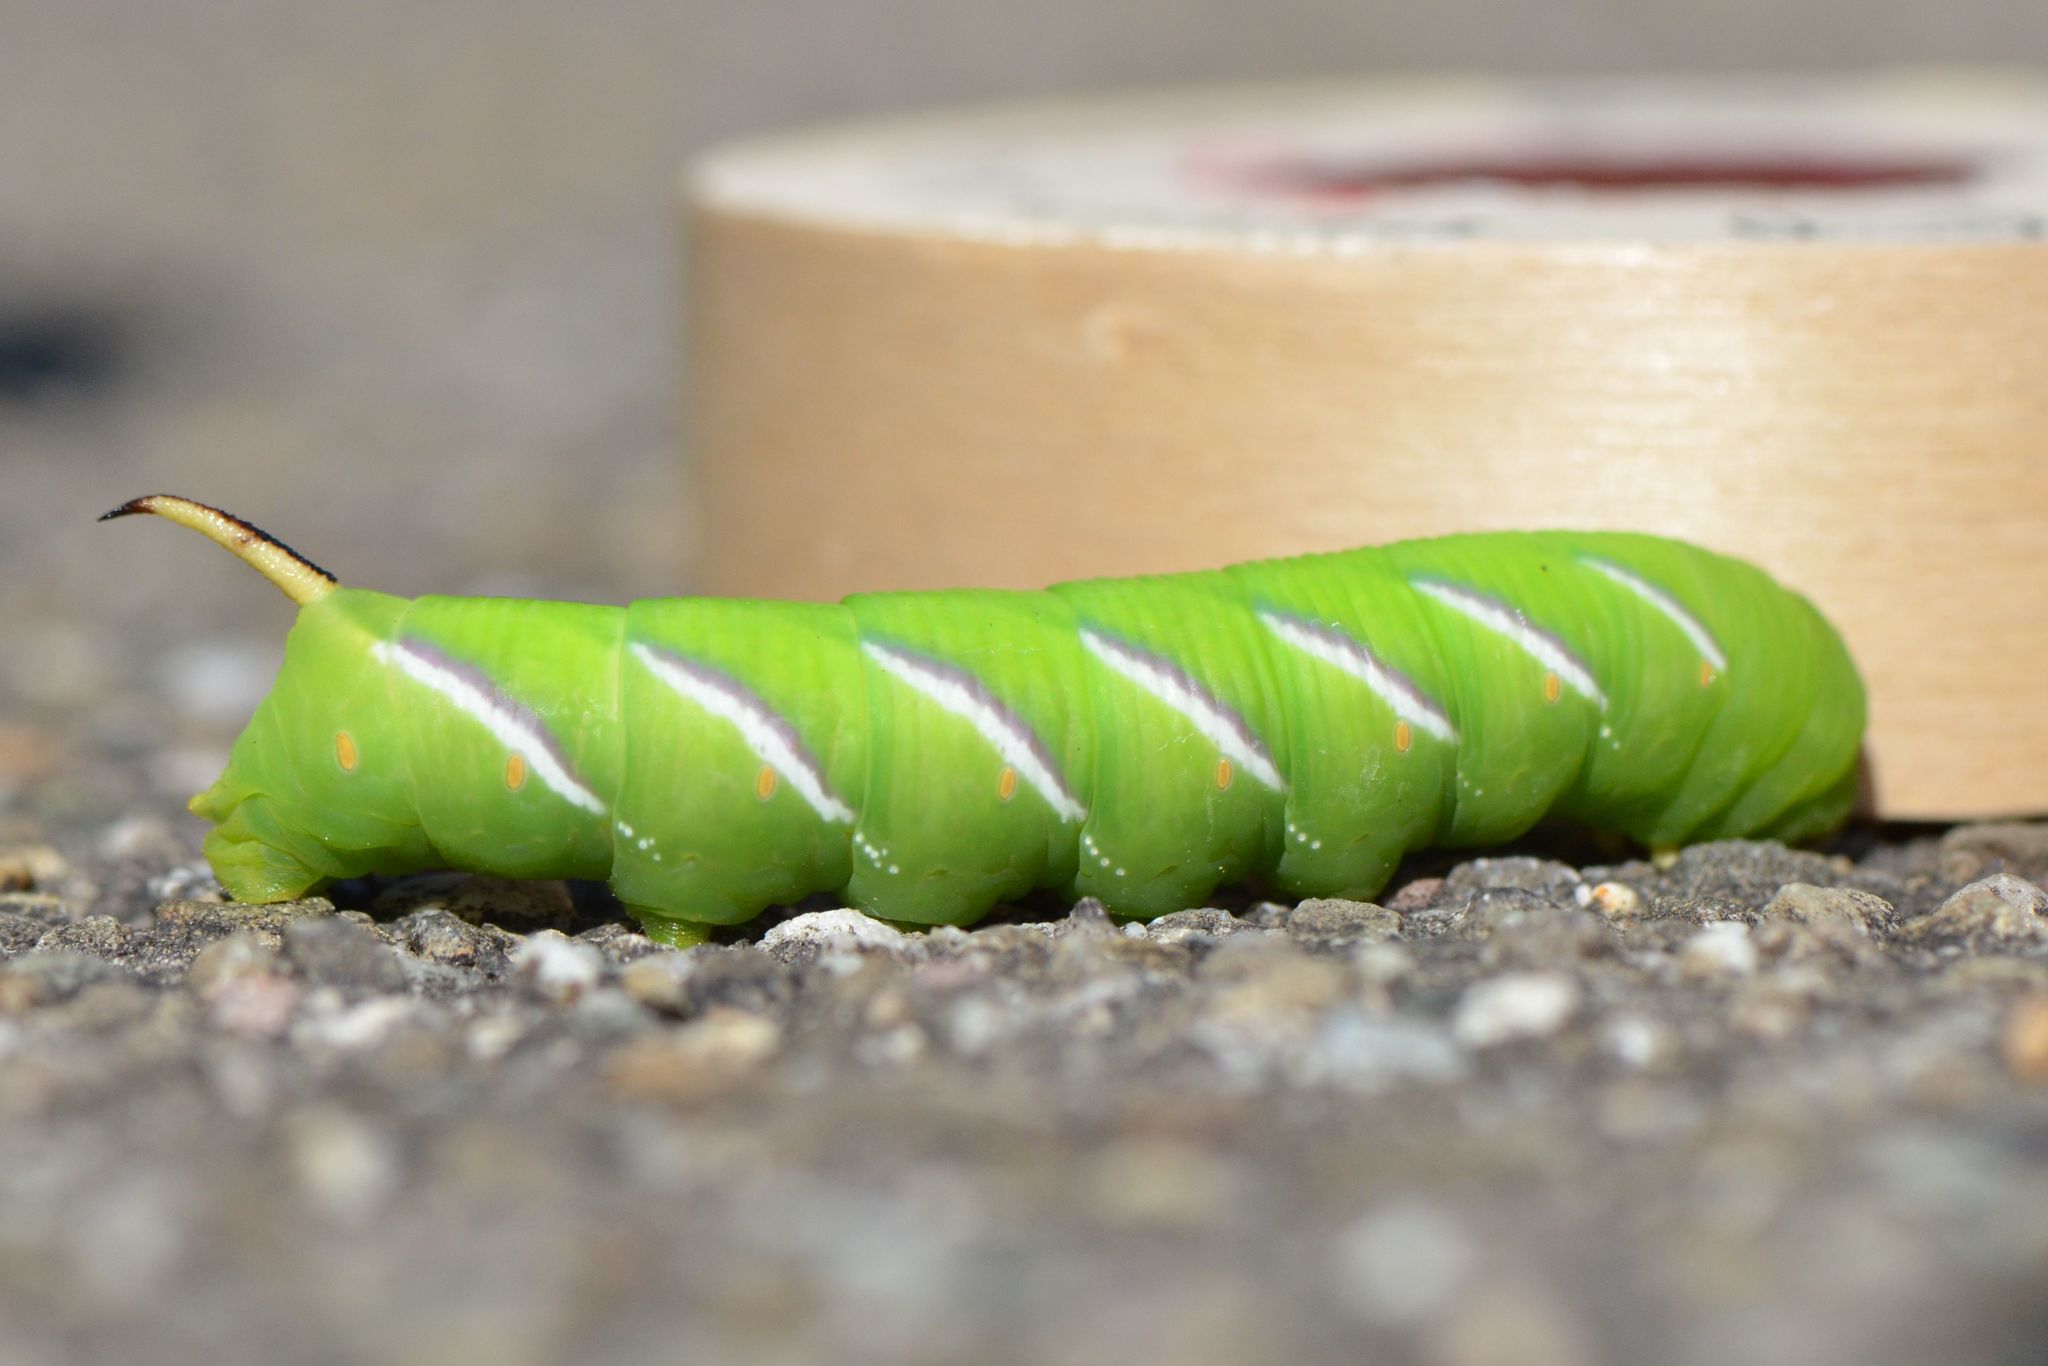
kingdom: Animalia
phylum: Arthropoda
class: Insecta
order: Lepidoptera
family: Sphingidae
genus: Sphinx
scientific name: Sphinx ligustri
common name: Privet hawk-moth
